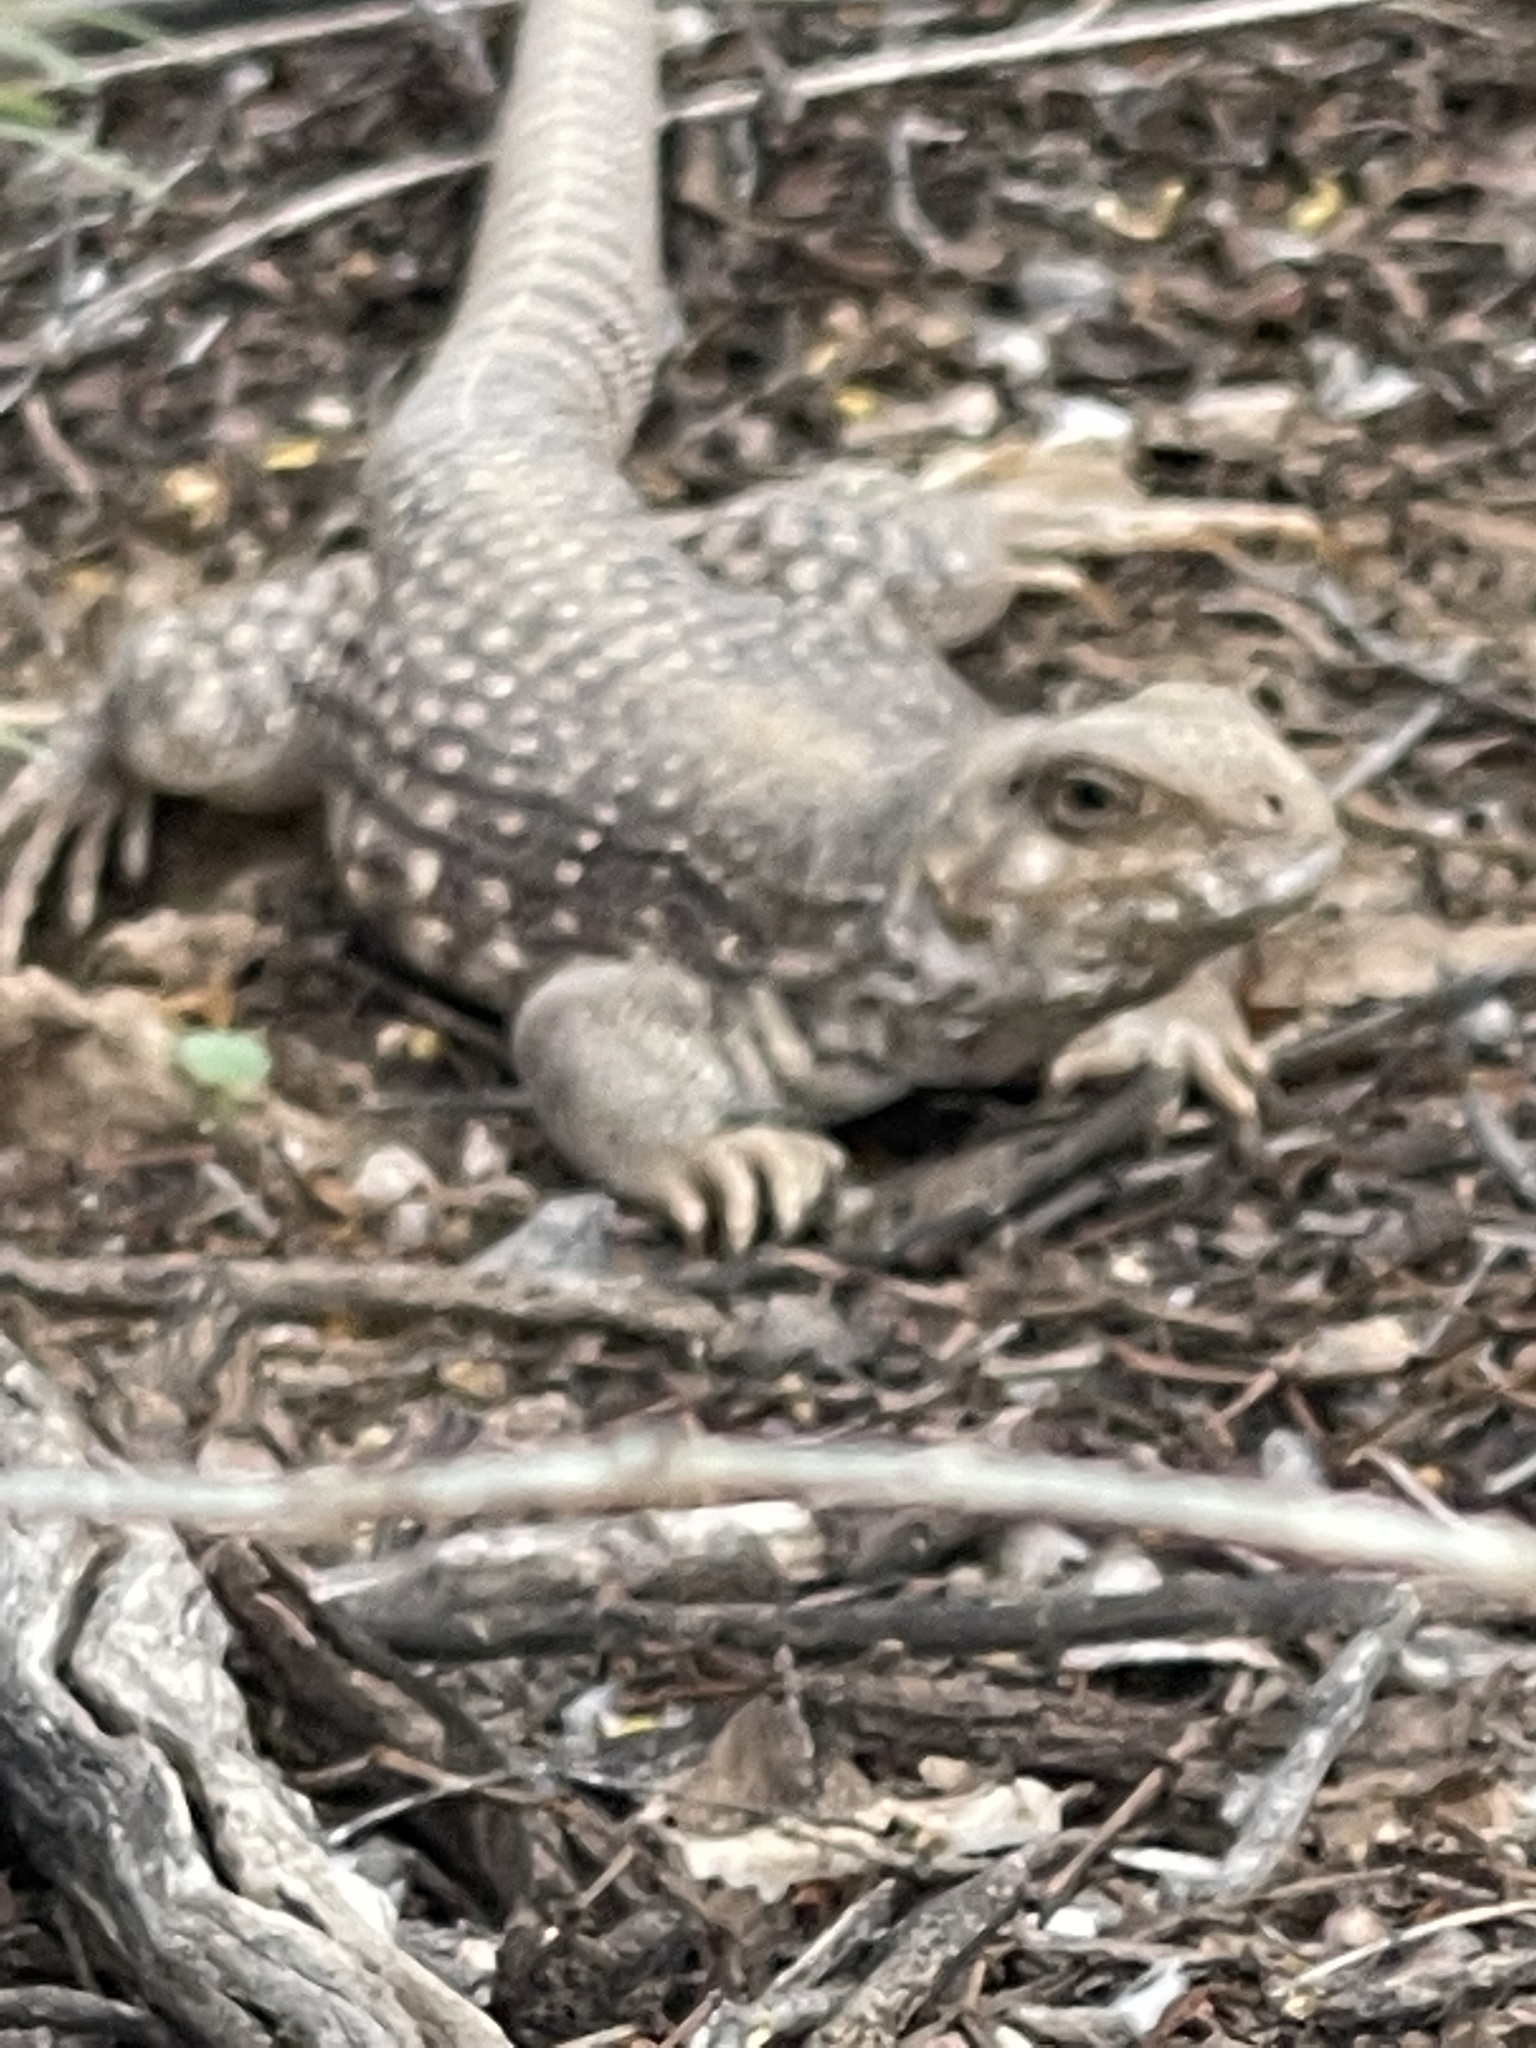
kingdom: Animalia
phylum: Chordata
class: Squamata
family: Iguanidae
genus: Dipsosaurus
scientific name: Dipsosaurus dorsalis
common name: Desert iguana
